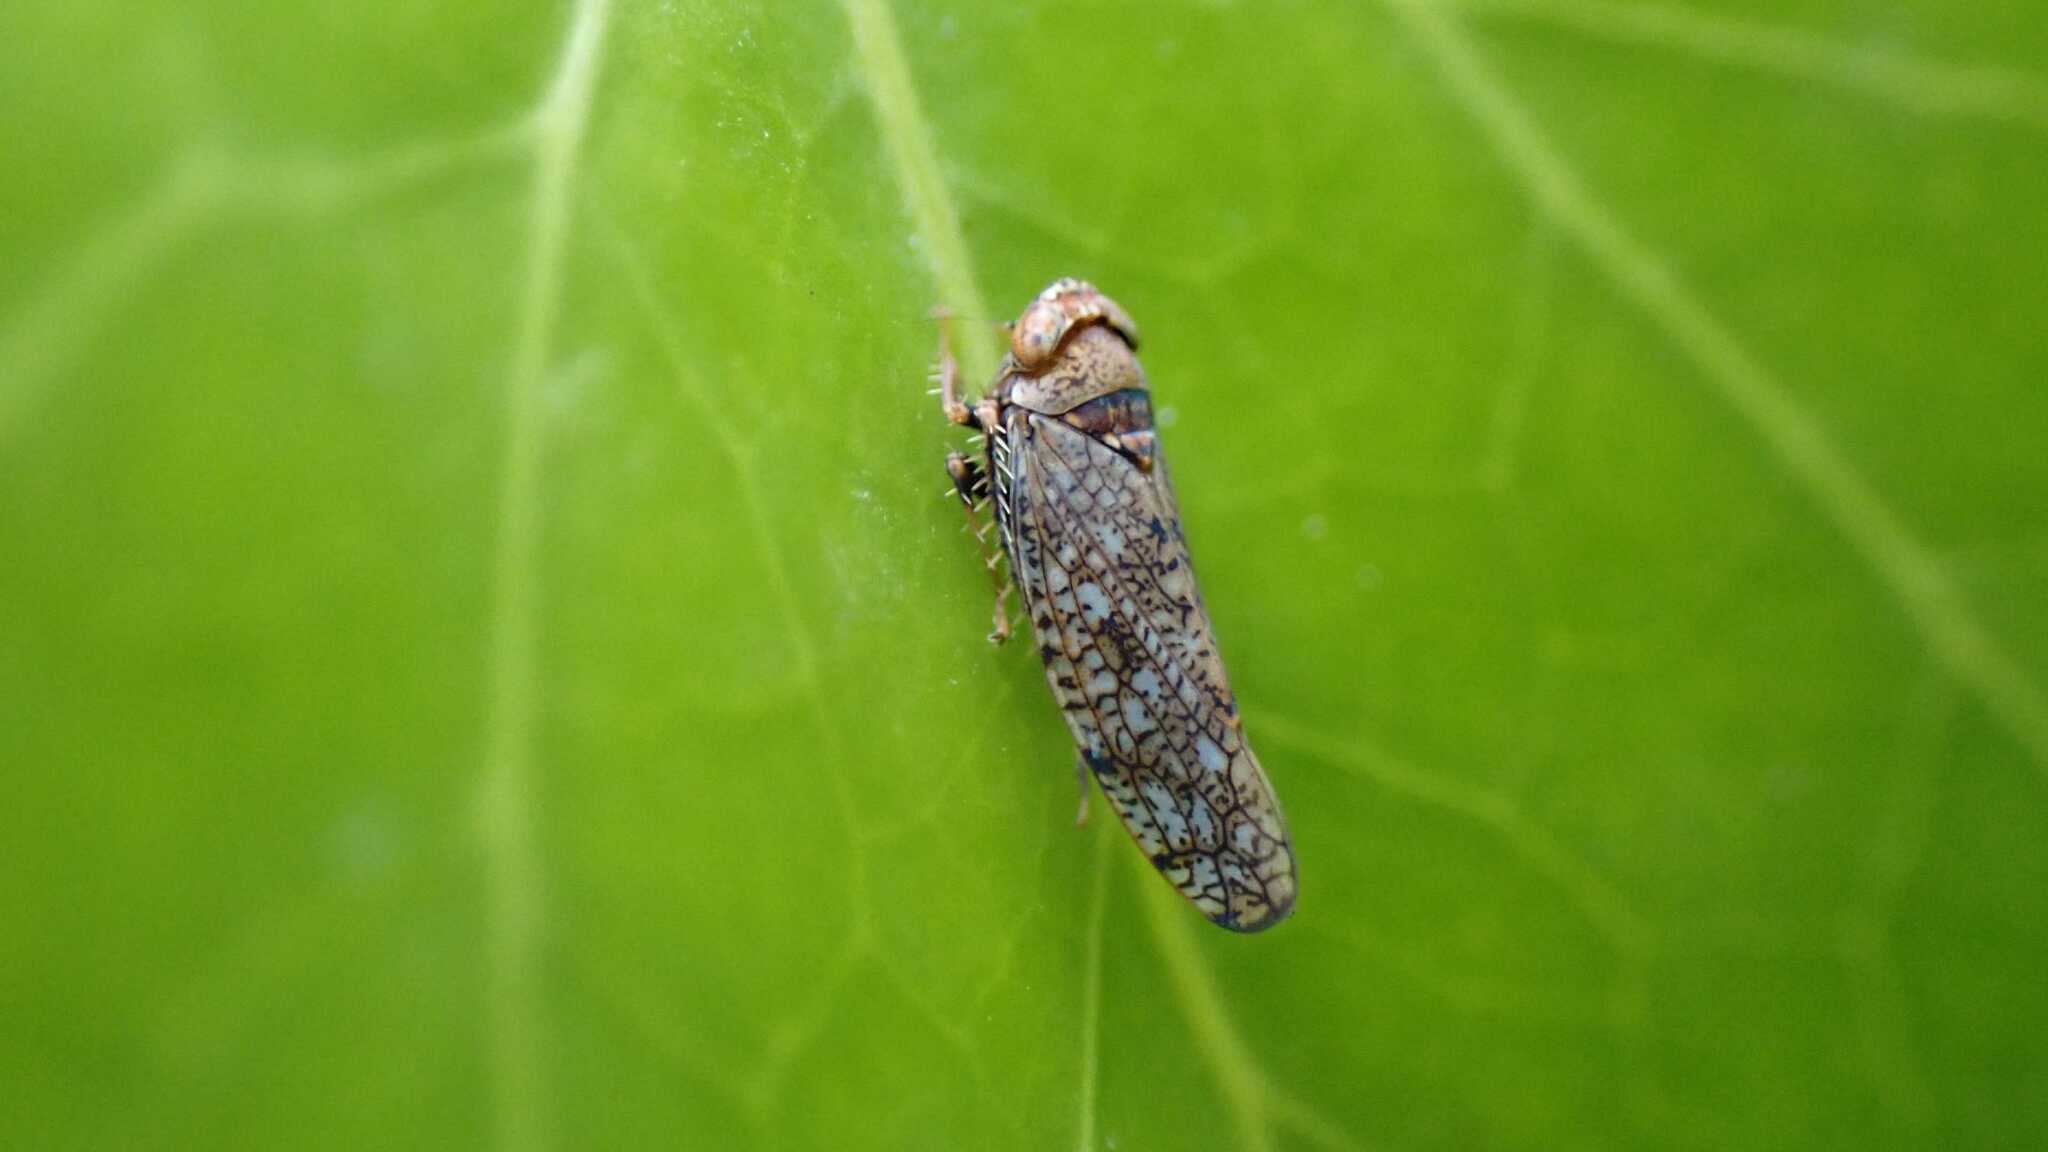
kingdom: Animalia
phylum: Arthropoda
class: Insecta
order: Hemiptera
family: Cicadellidae
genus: Orientus
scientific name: Orientus ishidae
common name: Japanese leafhopper
